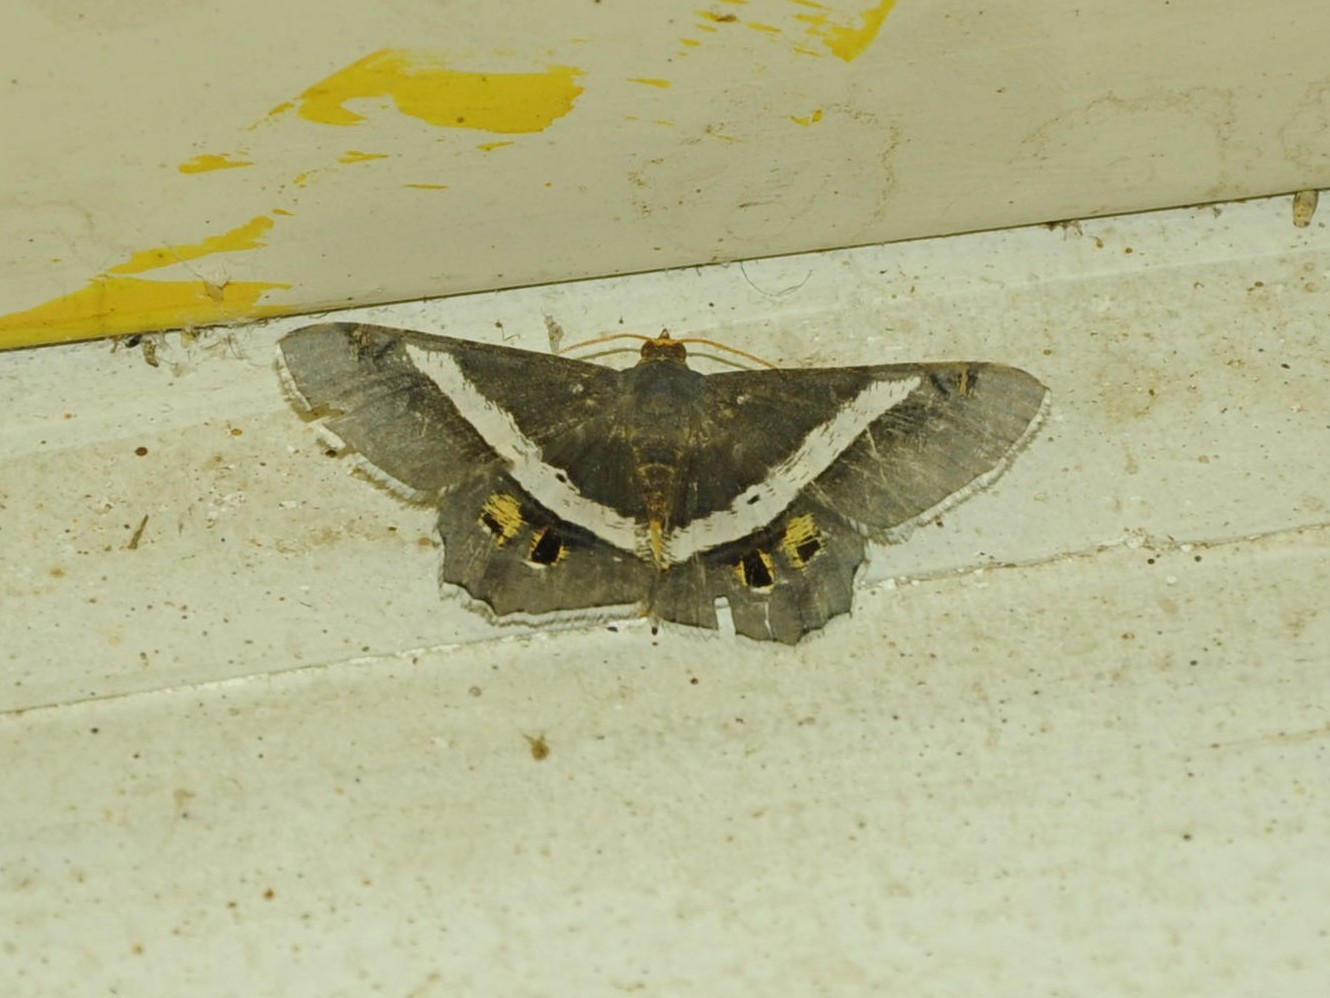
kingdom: Animalia
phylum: Arthropoda
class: Insecta
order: Lepidoptera
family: Geometridae
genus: Chiasmia
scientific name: Chiasmia eleonora
